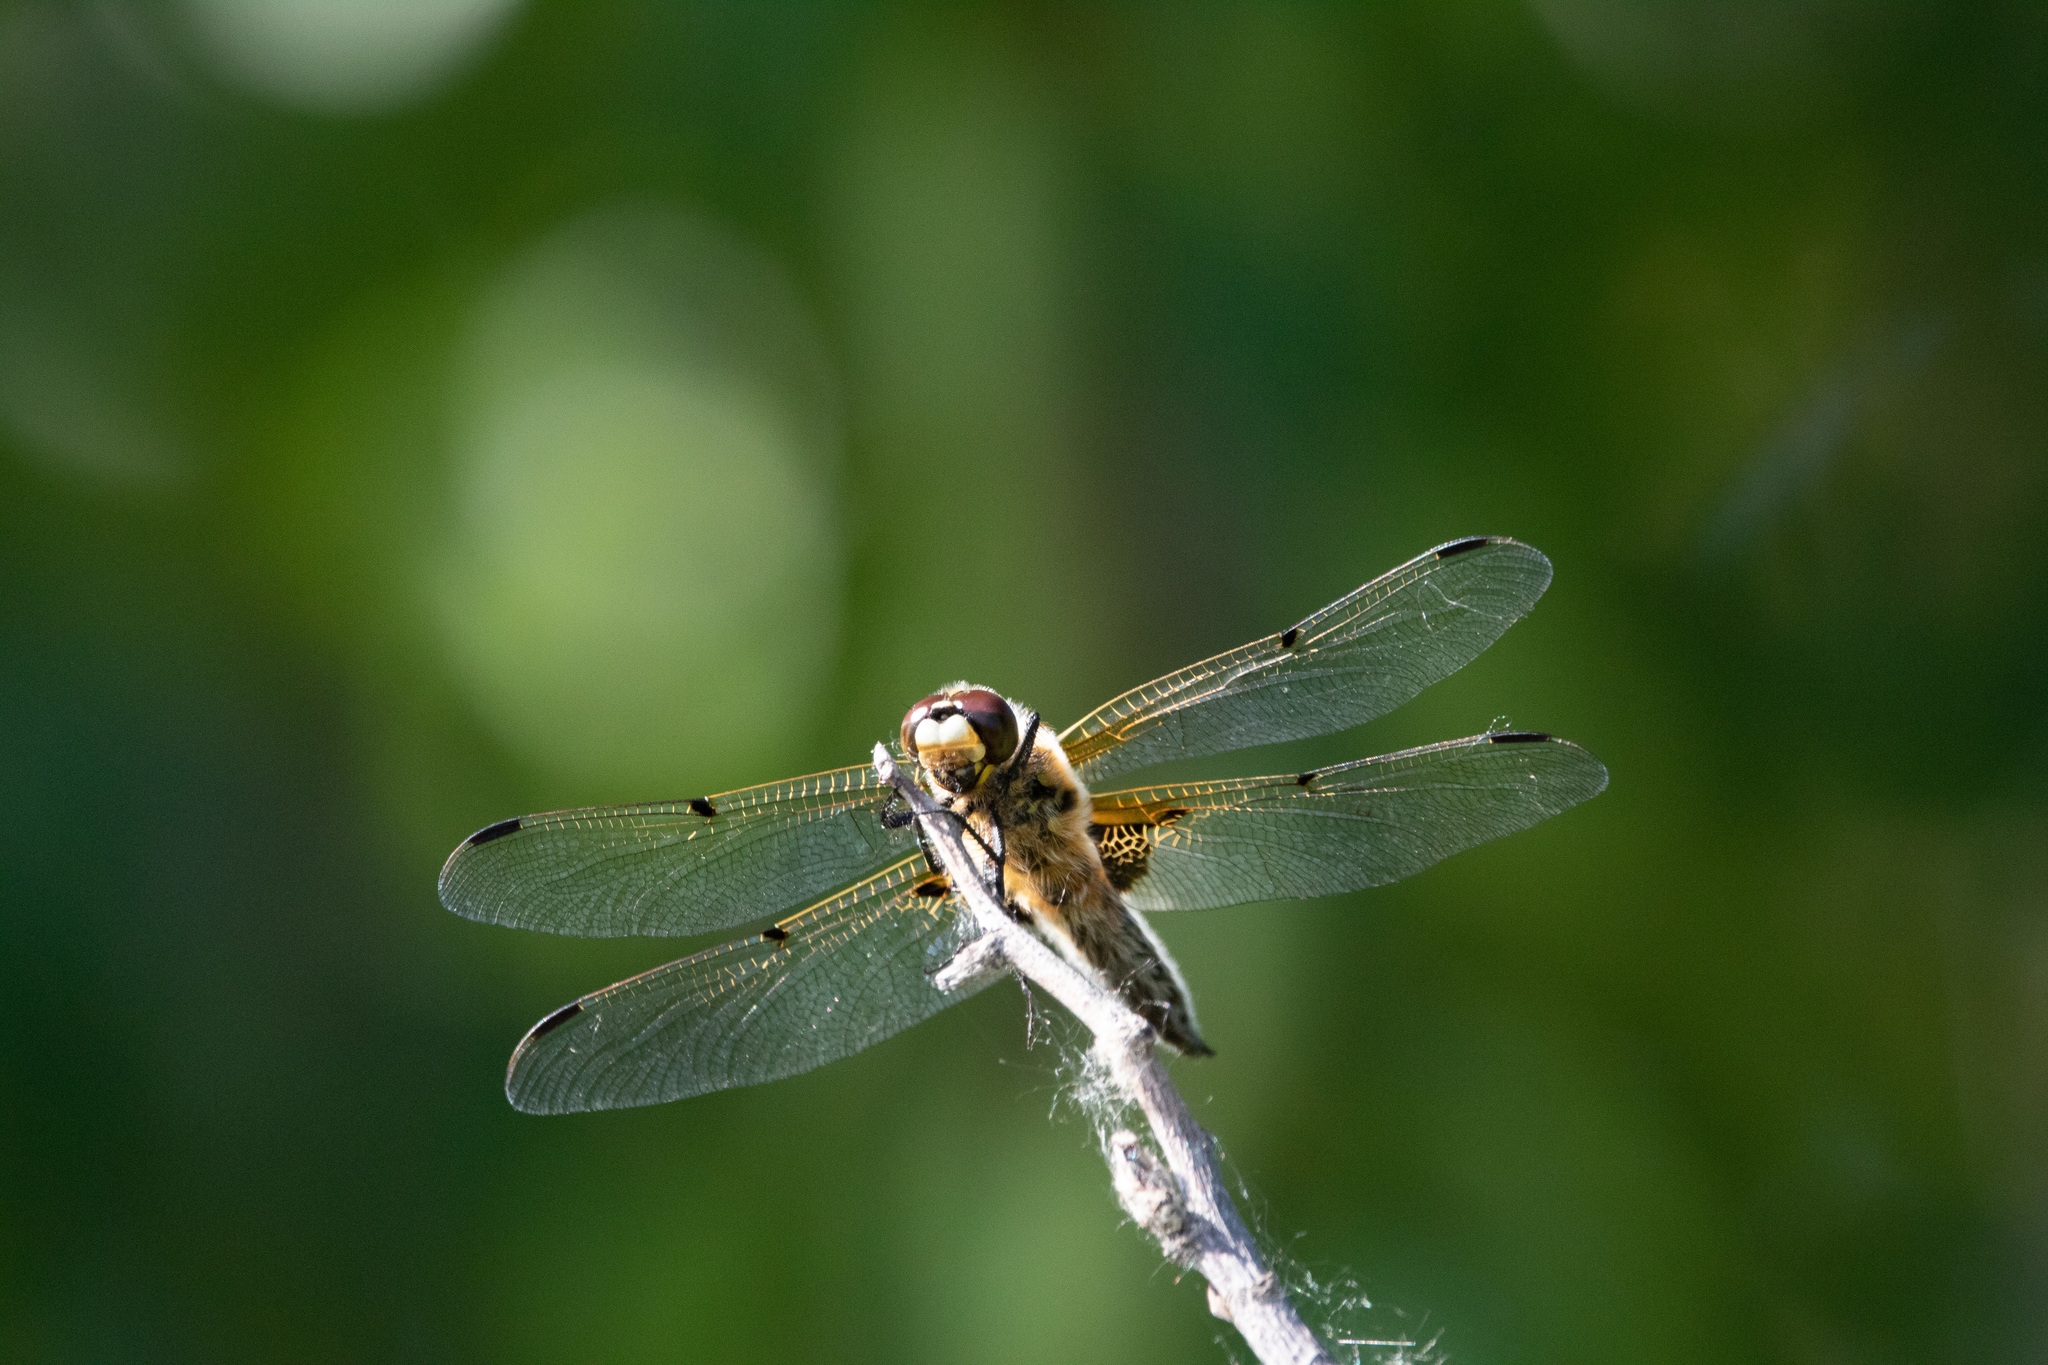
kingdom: Animalia
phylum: Arthropoda
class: Insecta
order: Odonata
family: Libellulidae
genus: Libellula
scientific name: Libellula quadrimaculata
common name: Four-spotted chaser
